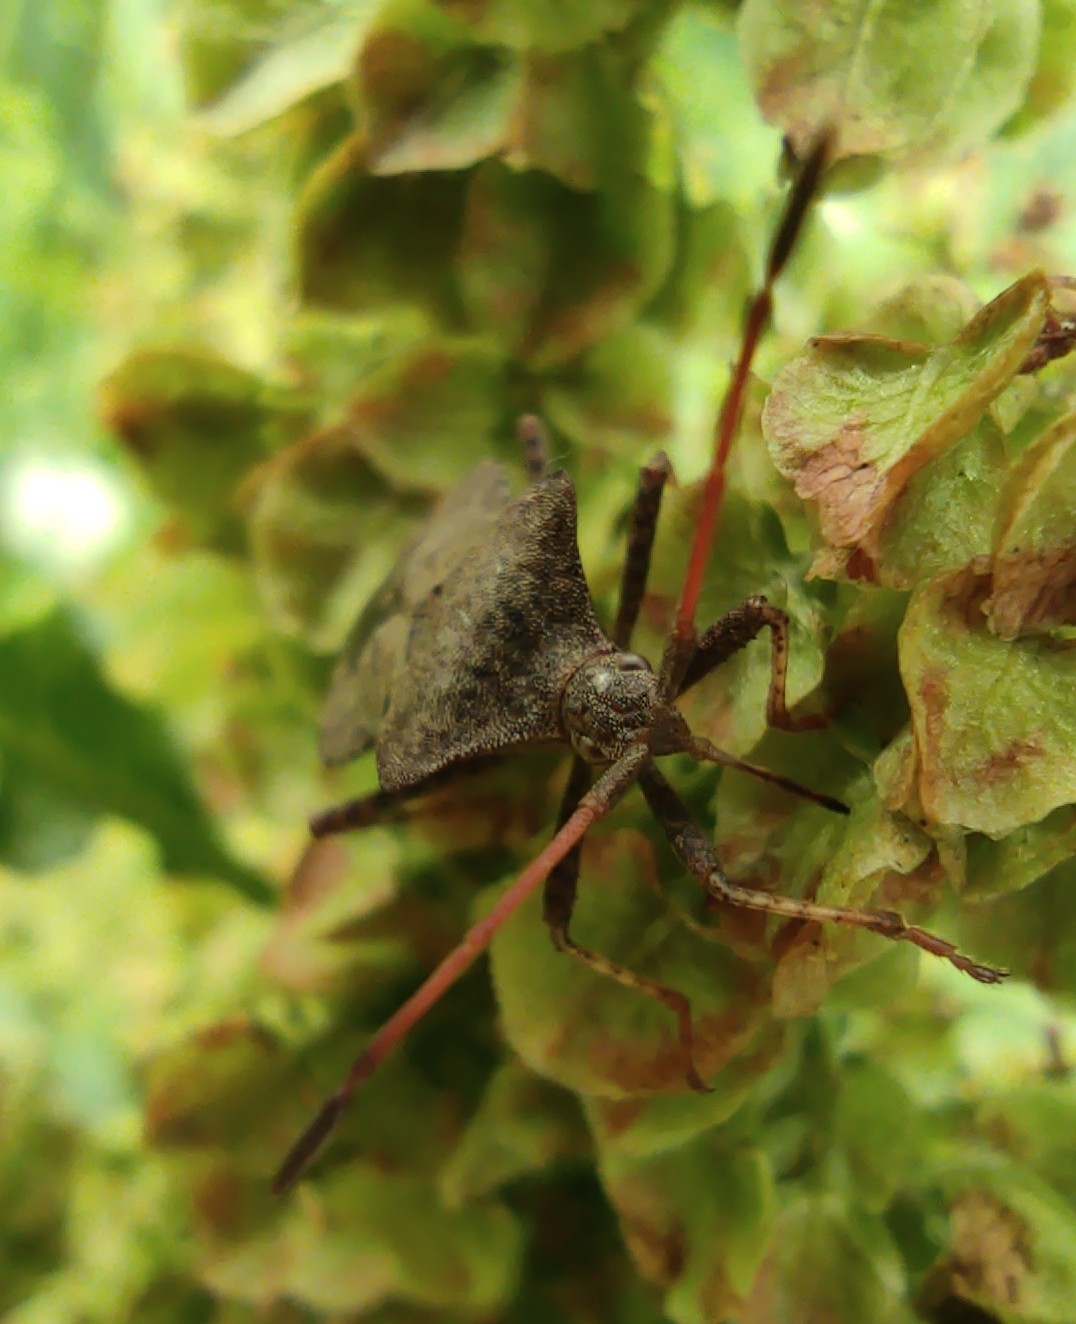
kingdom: Animalia
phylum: Arthropoda
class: Insecta
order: Hemiptera
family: Coreidae
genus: Coreus
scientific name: Coreus marginatus
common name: Dock bug
